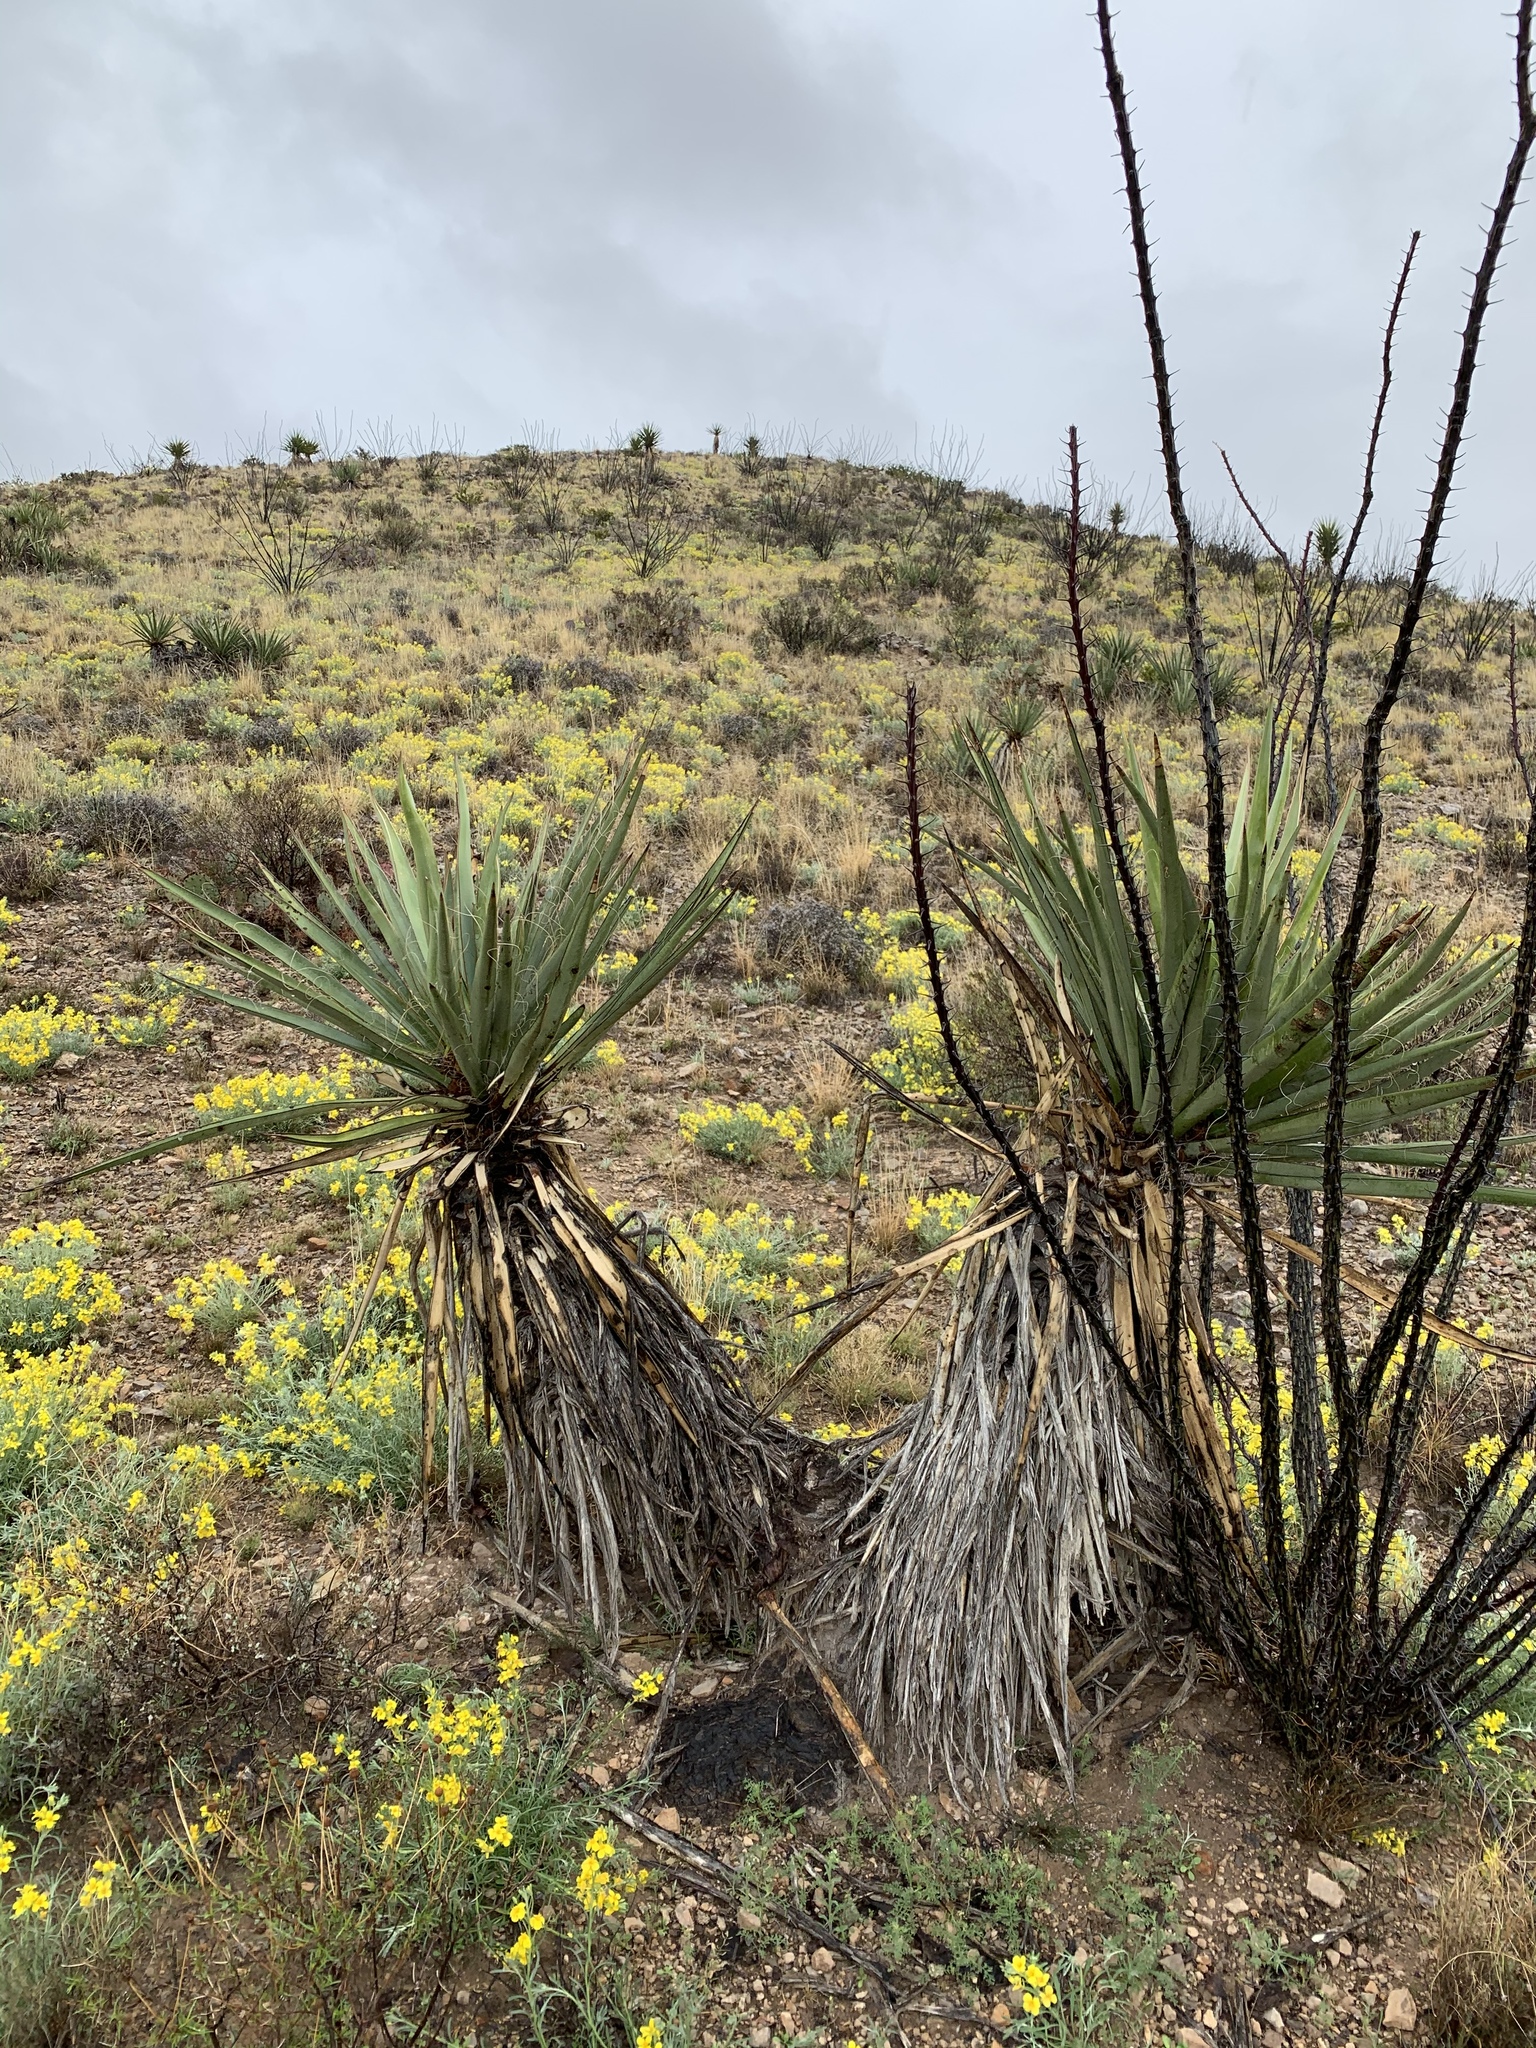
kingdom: Plantae
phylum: Tracheophyta
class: Liliopsida
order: Asparagales
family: Asparagaceae
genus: Yucca
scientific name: Yucca treculiana
